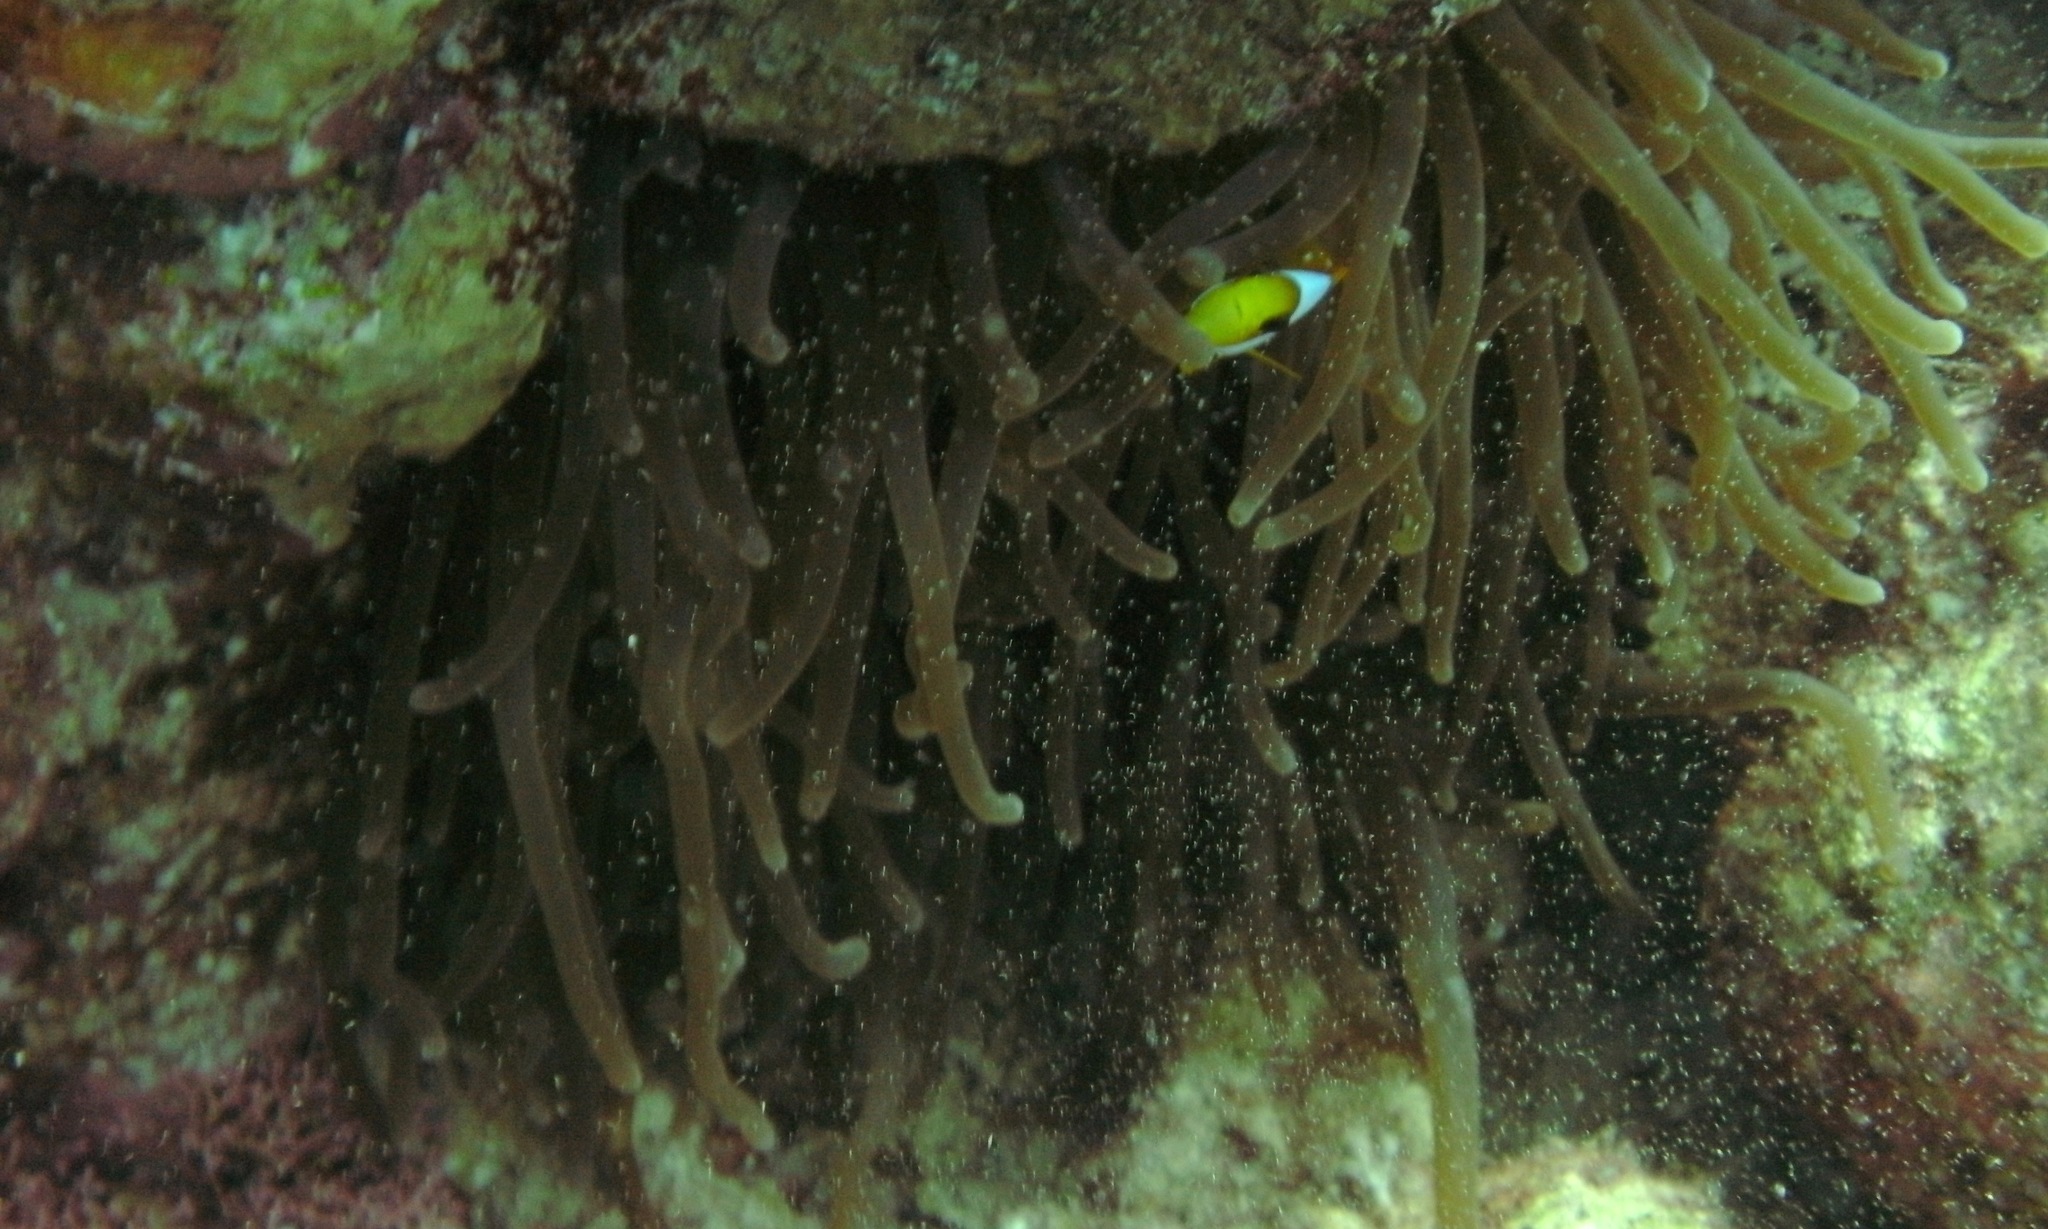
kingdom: Animalia
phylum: Cnidaria
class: Anthozoa
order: Actiniaria
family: Actiniidae
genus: Entacmaea
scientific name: Entacmaea quadricolor
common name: Bulb tentacle sea anemone
